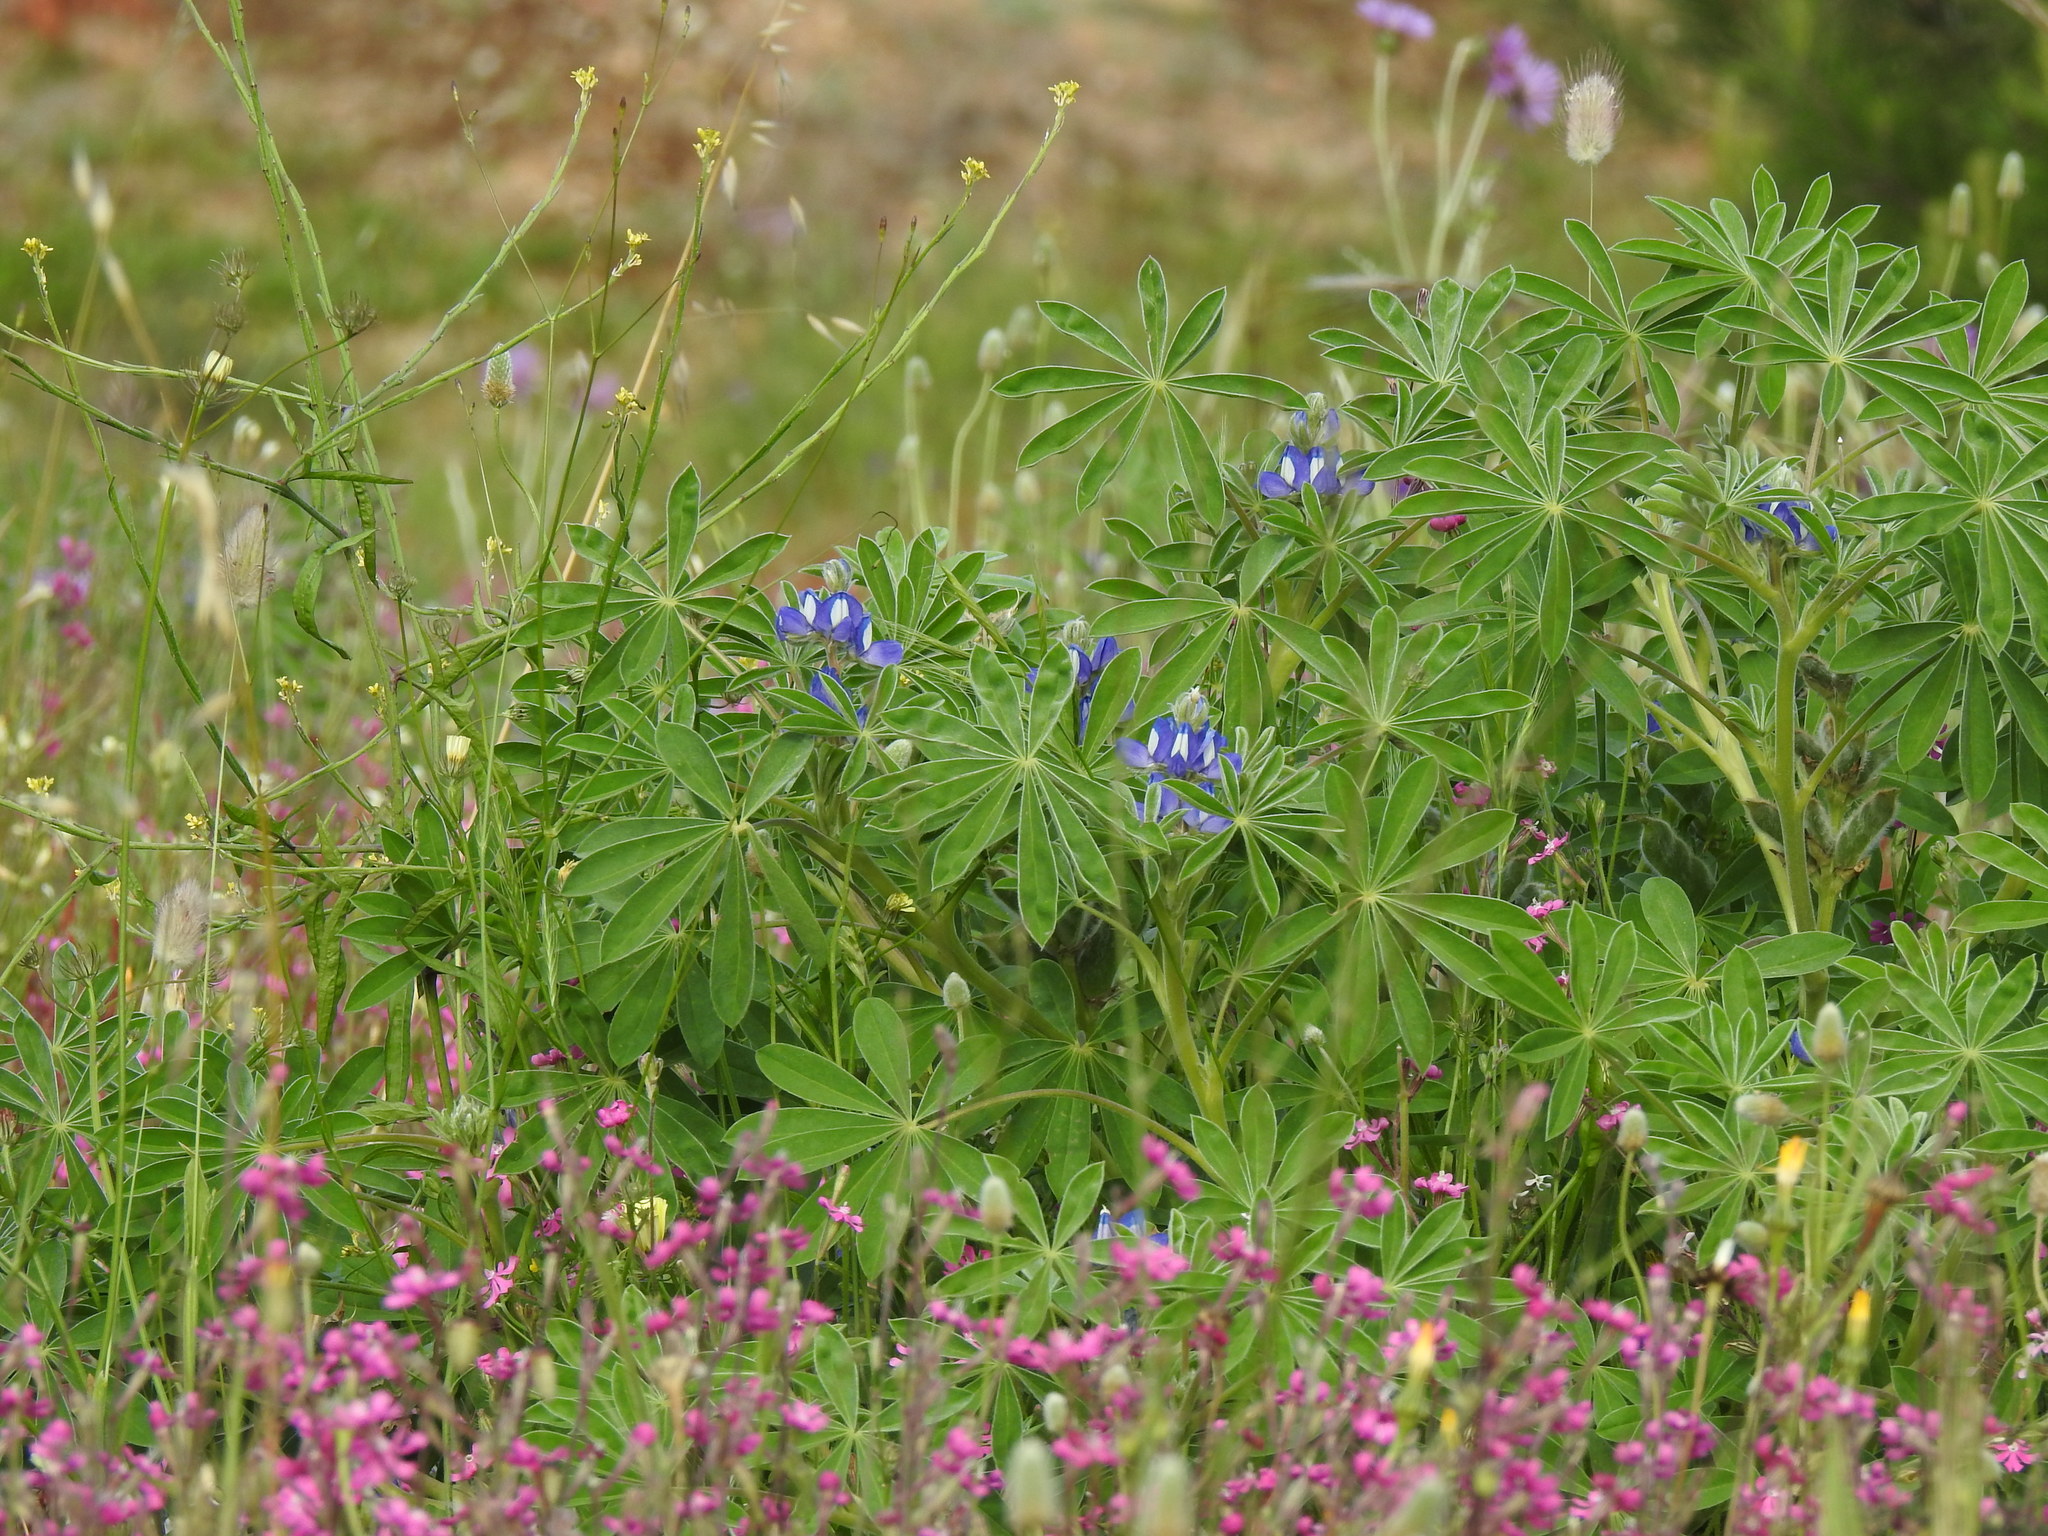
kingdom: Plantae
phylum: Tracheophyta
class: Magnoliopsida
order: Fabales
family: Fabaceae
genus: Lupinus
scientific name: Lupinus cosentinii
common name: Hairy blue lupin
